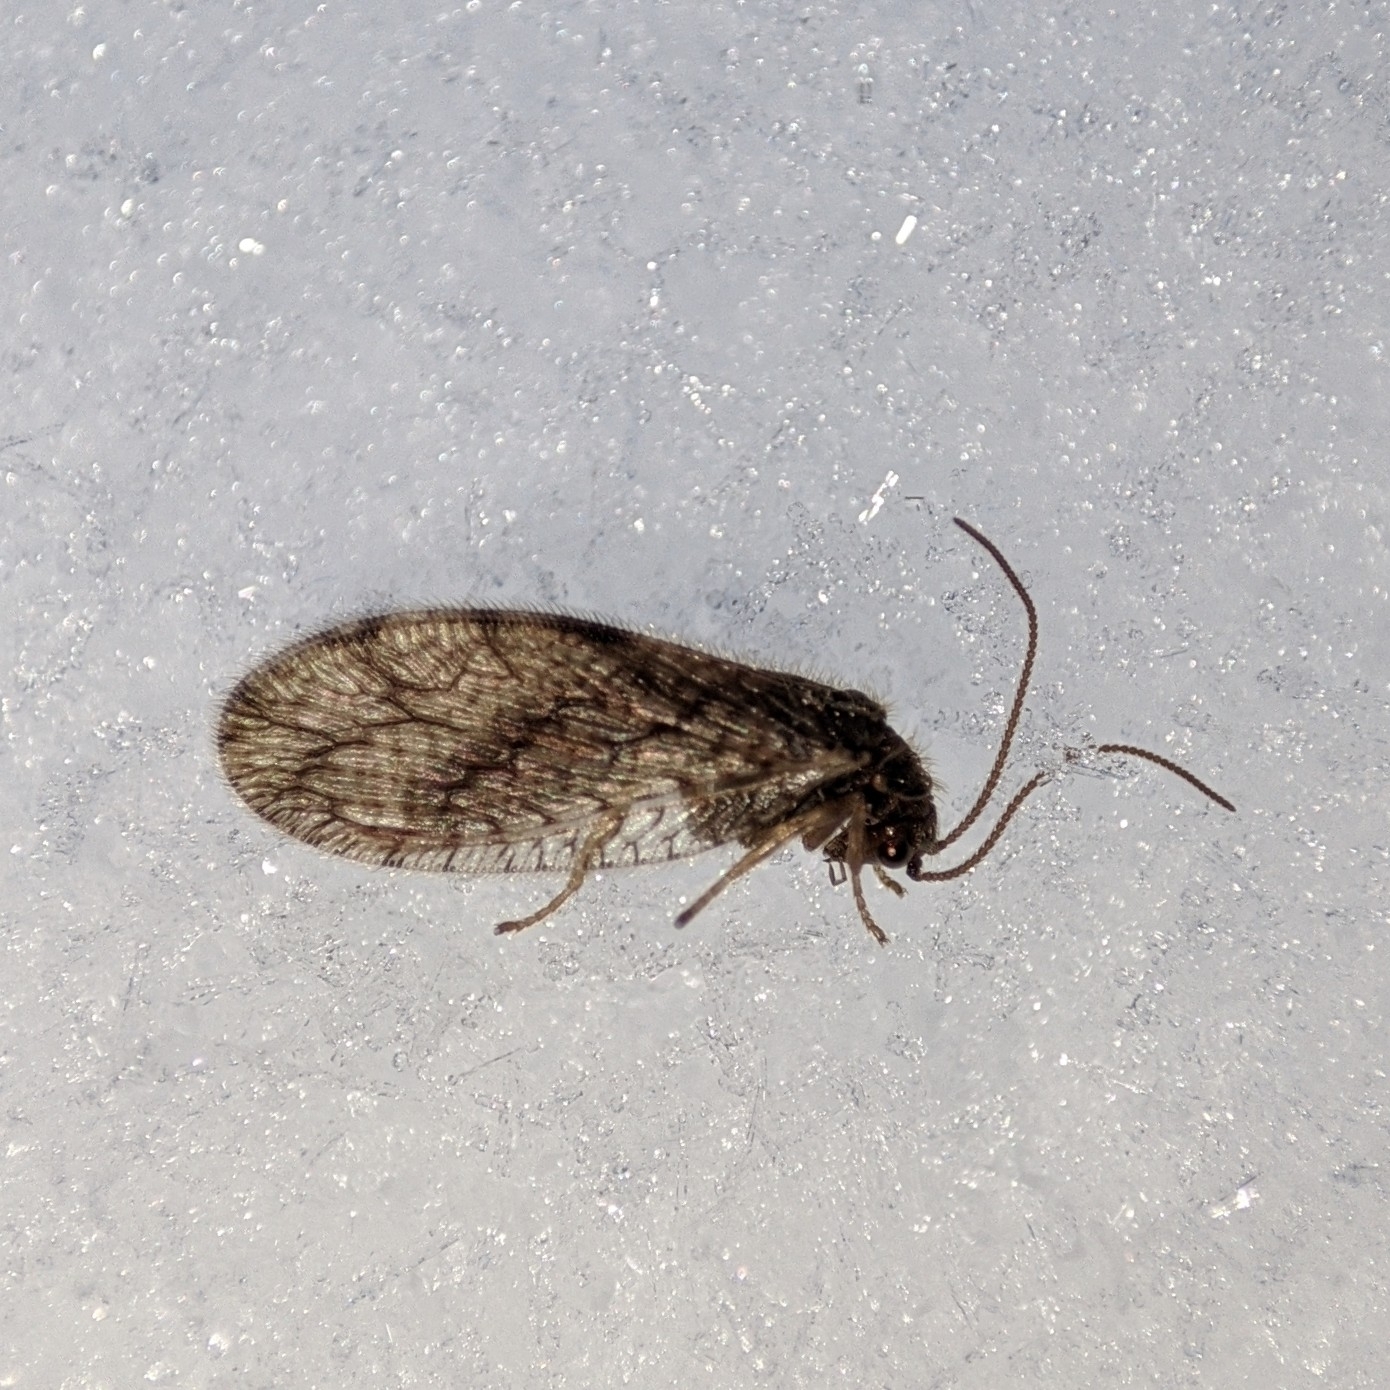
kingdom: Animalia
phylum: Arthropoda
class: Insecta
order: Neuroptera
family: Hemerobiidae
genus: Micromus
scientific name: Micromus angulatus
